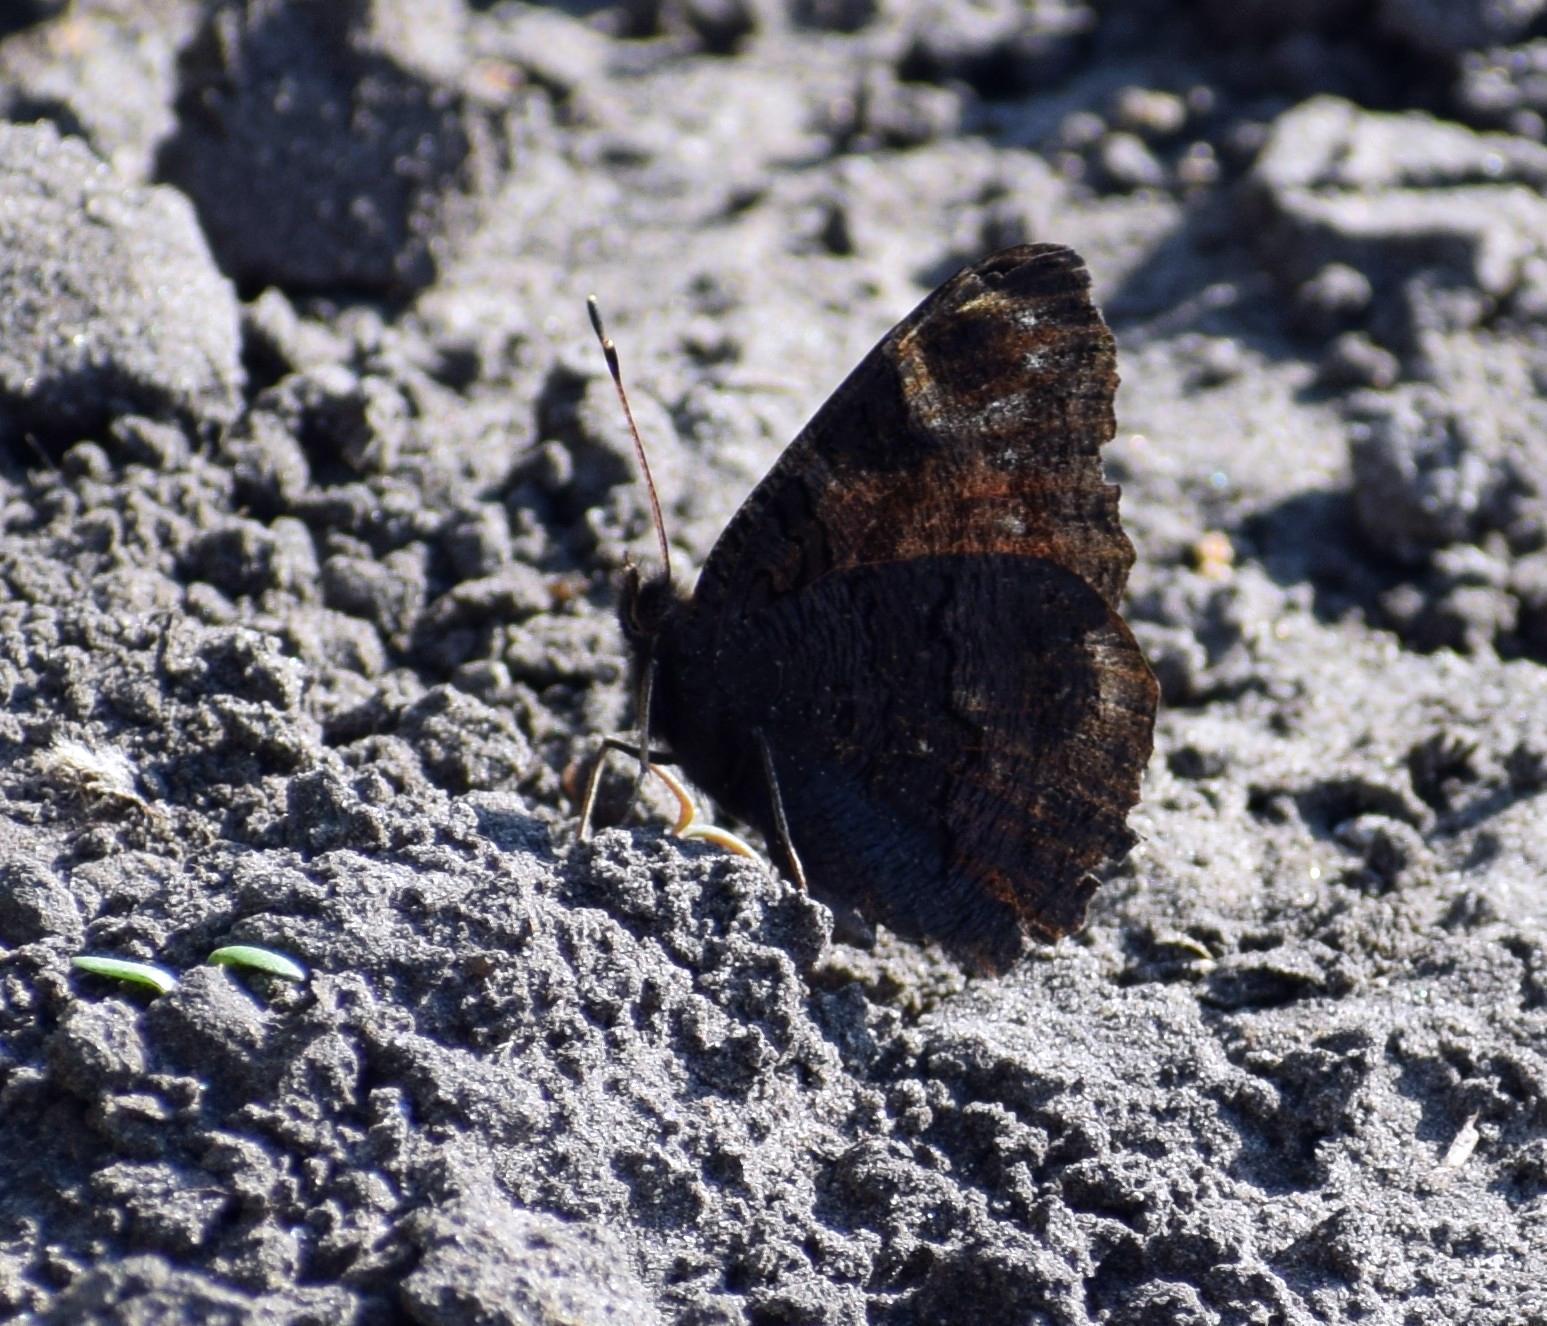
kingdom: Animalia
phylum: Arthropoda
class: Insecta
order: Lepidoptera
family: Nymphalidae
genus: Aglais
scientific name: Aglais io
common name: Peacock
